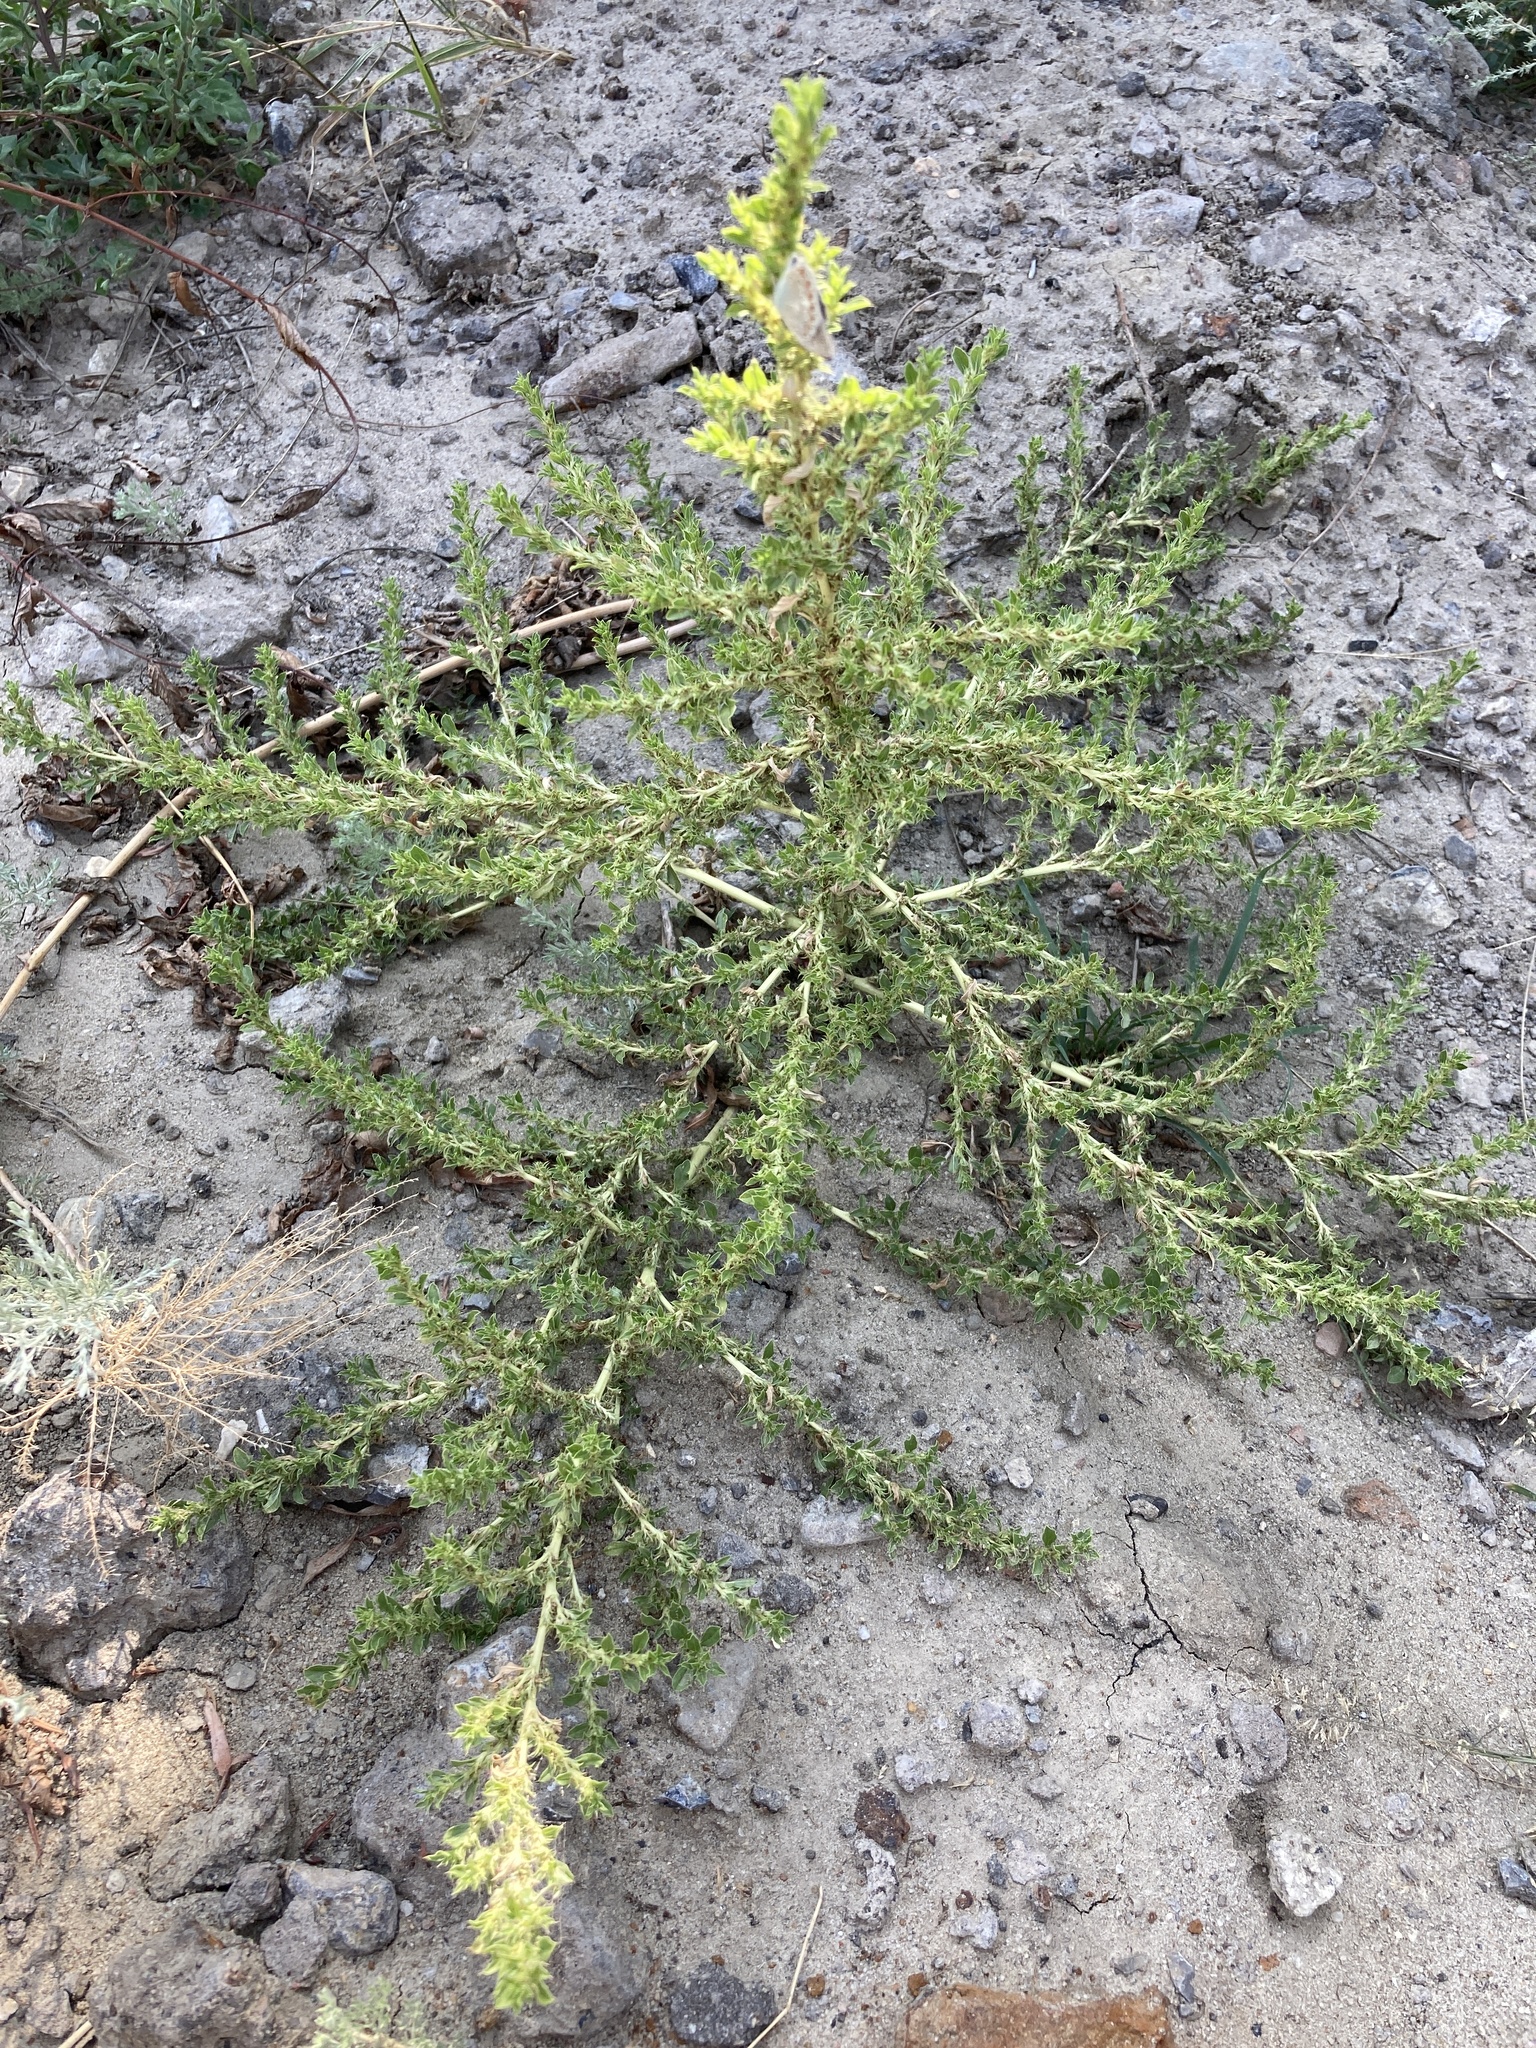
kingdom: Plantae
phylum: Tracheophyta
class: Magnoliopsida
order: Caryophyllales
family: Amaranthaceae
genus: Amaranthus
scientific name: Amaranthus albus
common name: White pigweed
